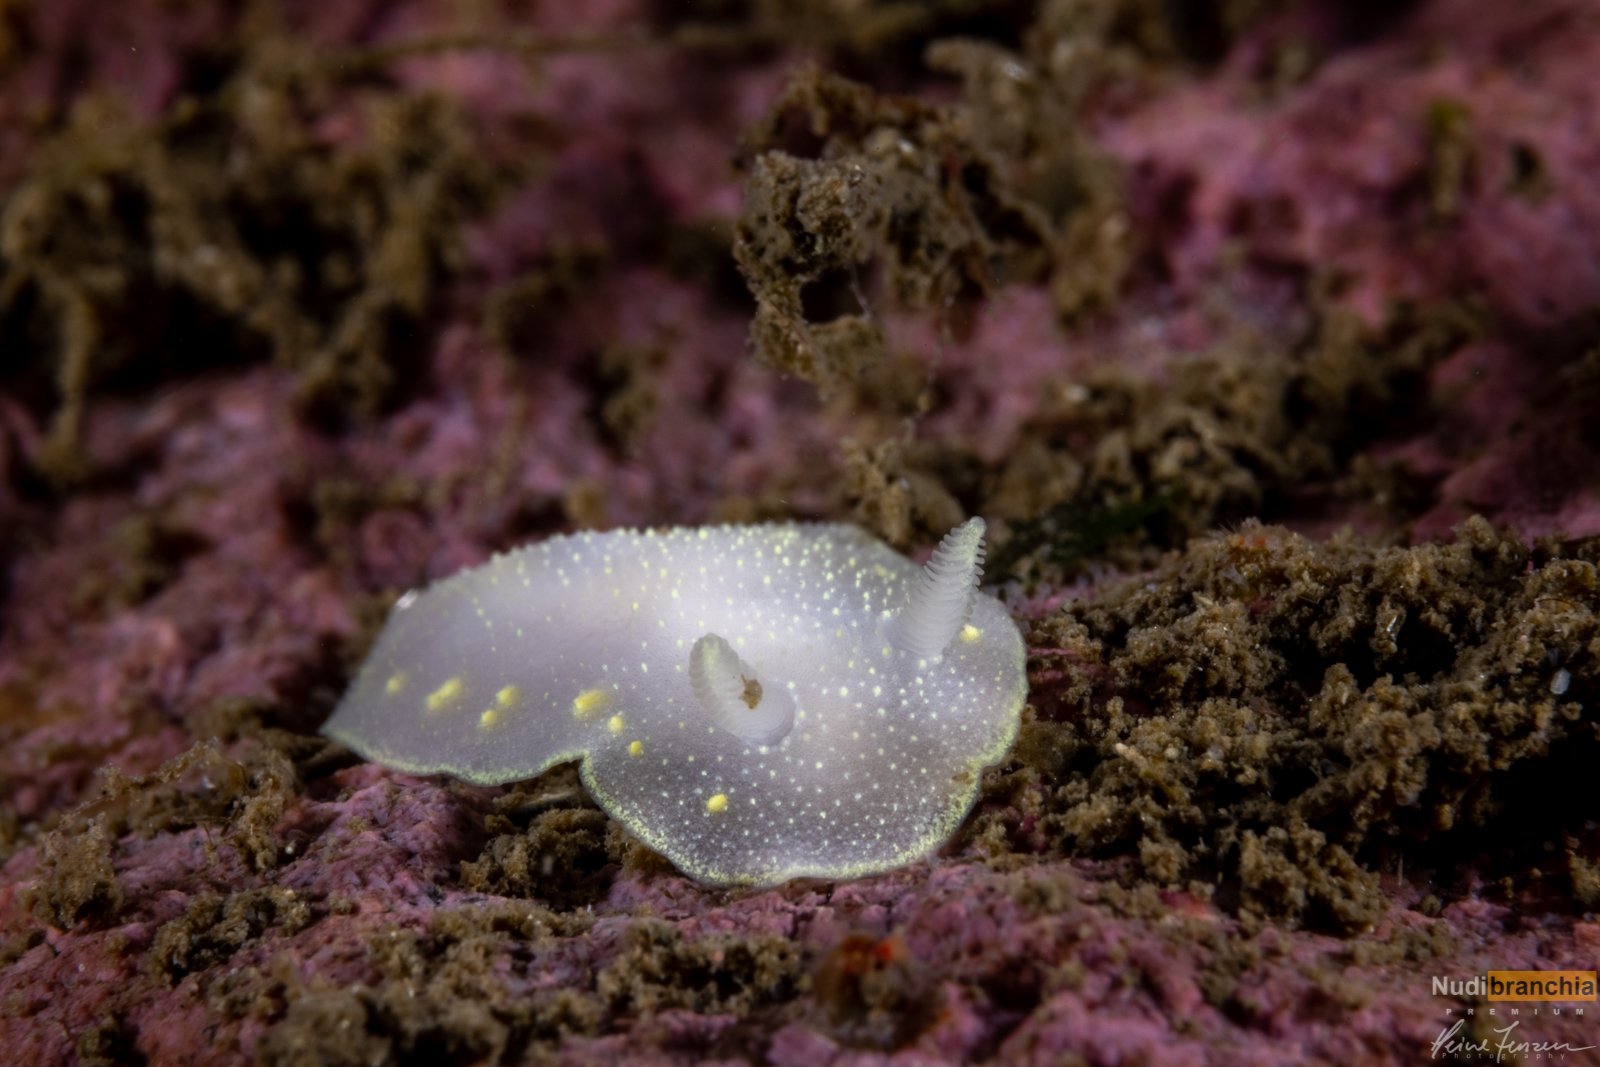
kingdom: Animalia
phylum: Mollusca
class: Gastropoda
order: Nudibranchia
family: Cadlinidae
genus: Cadlina
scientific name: Cadlina laevis
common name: White atlantic cadlina
